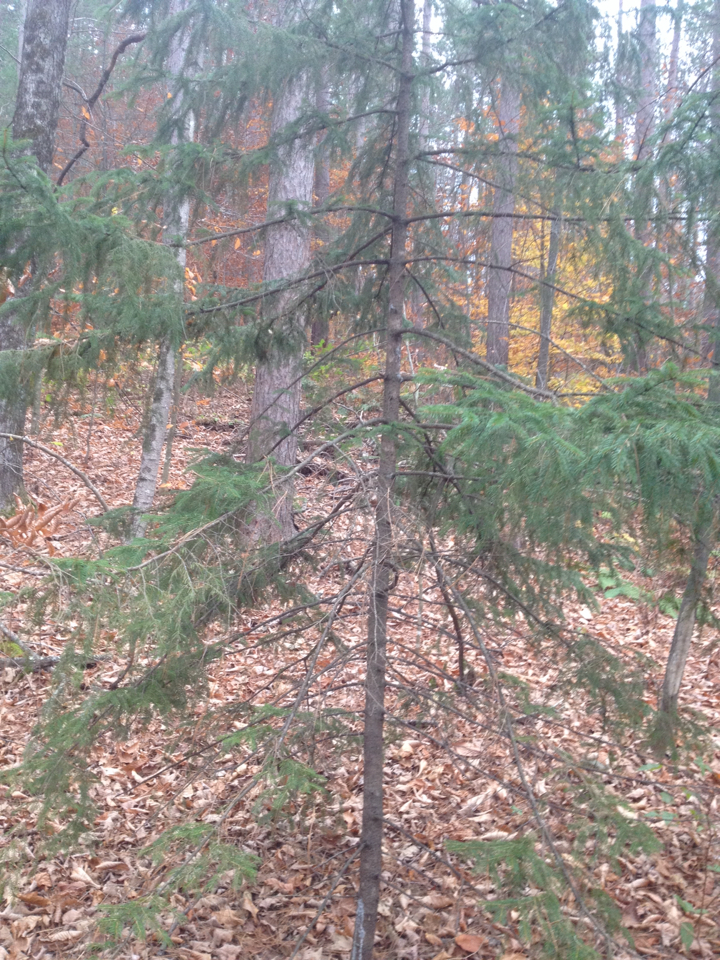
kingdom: Plantae
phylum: Tracheophyta
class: Pinopsida
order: Pinales
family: Pinaceae
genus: Picea
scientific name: Picea abies
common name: Norway spruce
